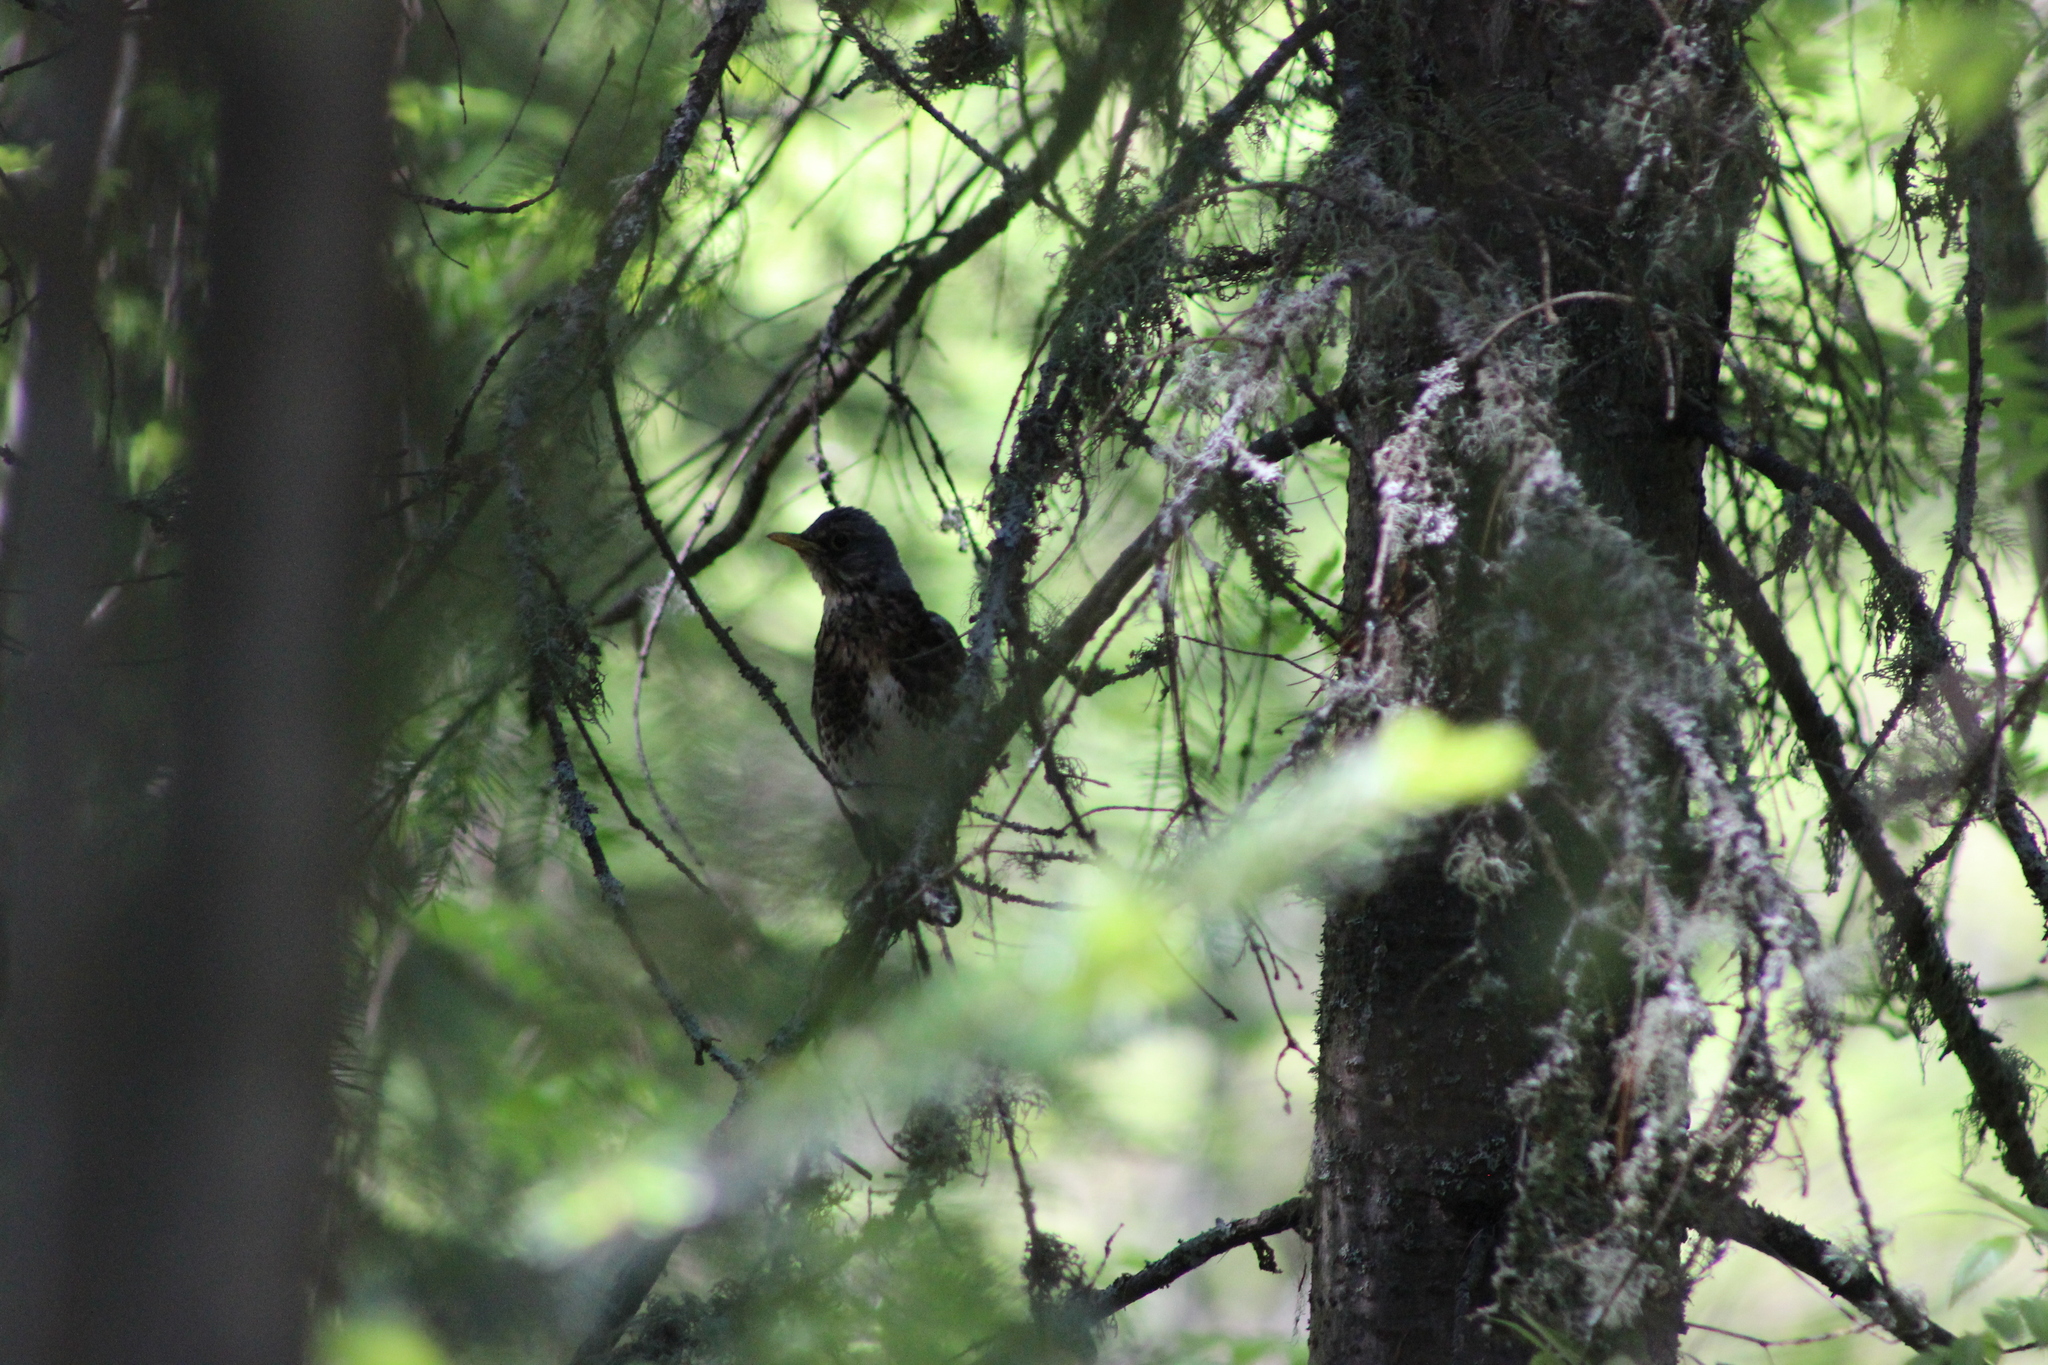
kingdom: Animalia
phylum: Chordata
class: Aves
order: Passeriformes
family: Turdidae
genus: Turdus
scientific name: Turdus pilaris
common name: Fieldfare
